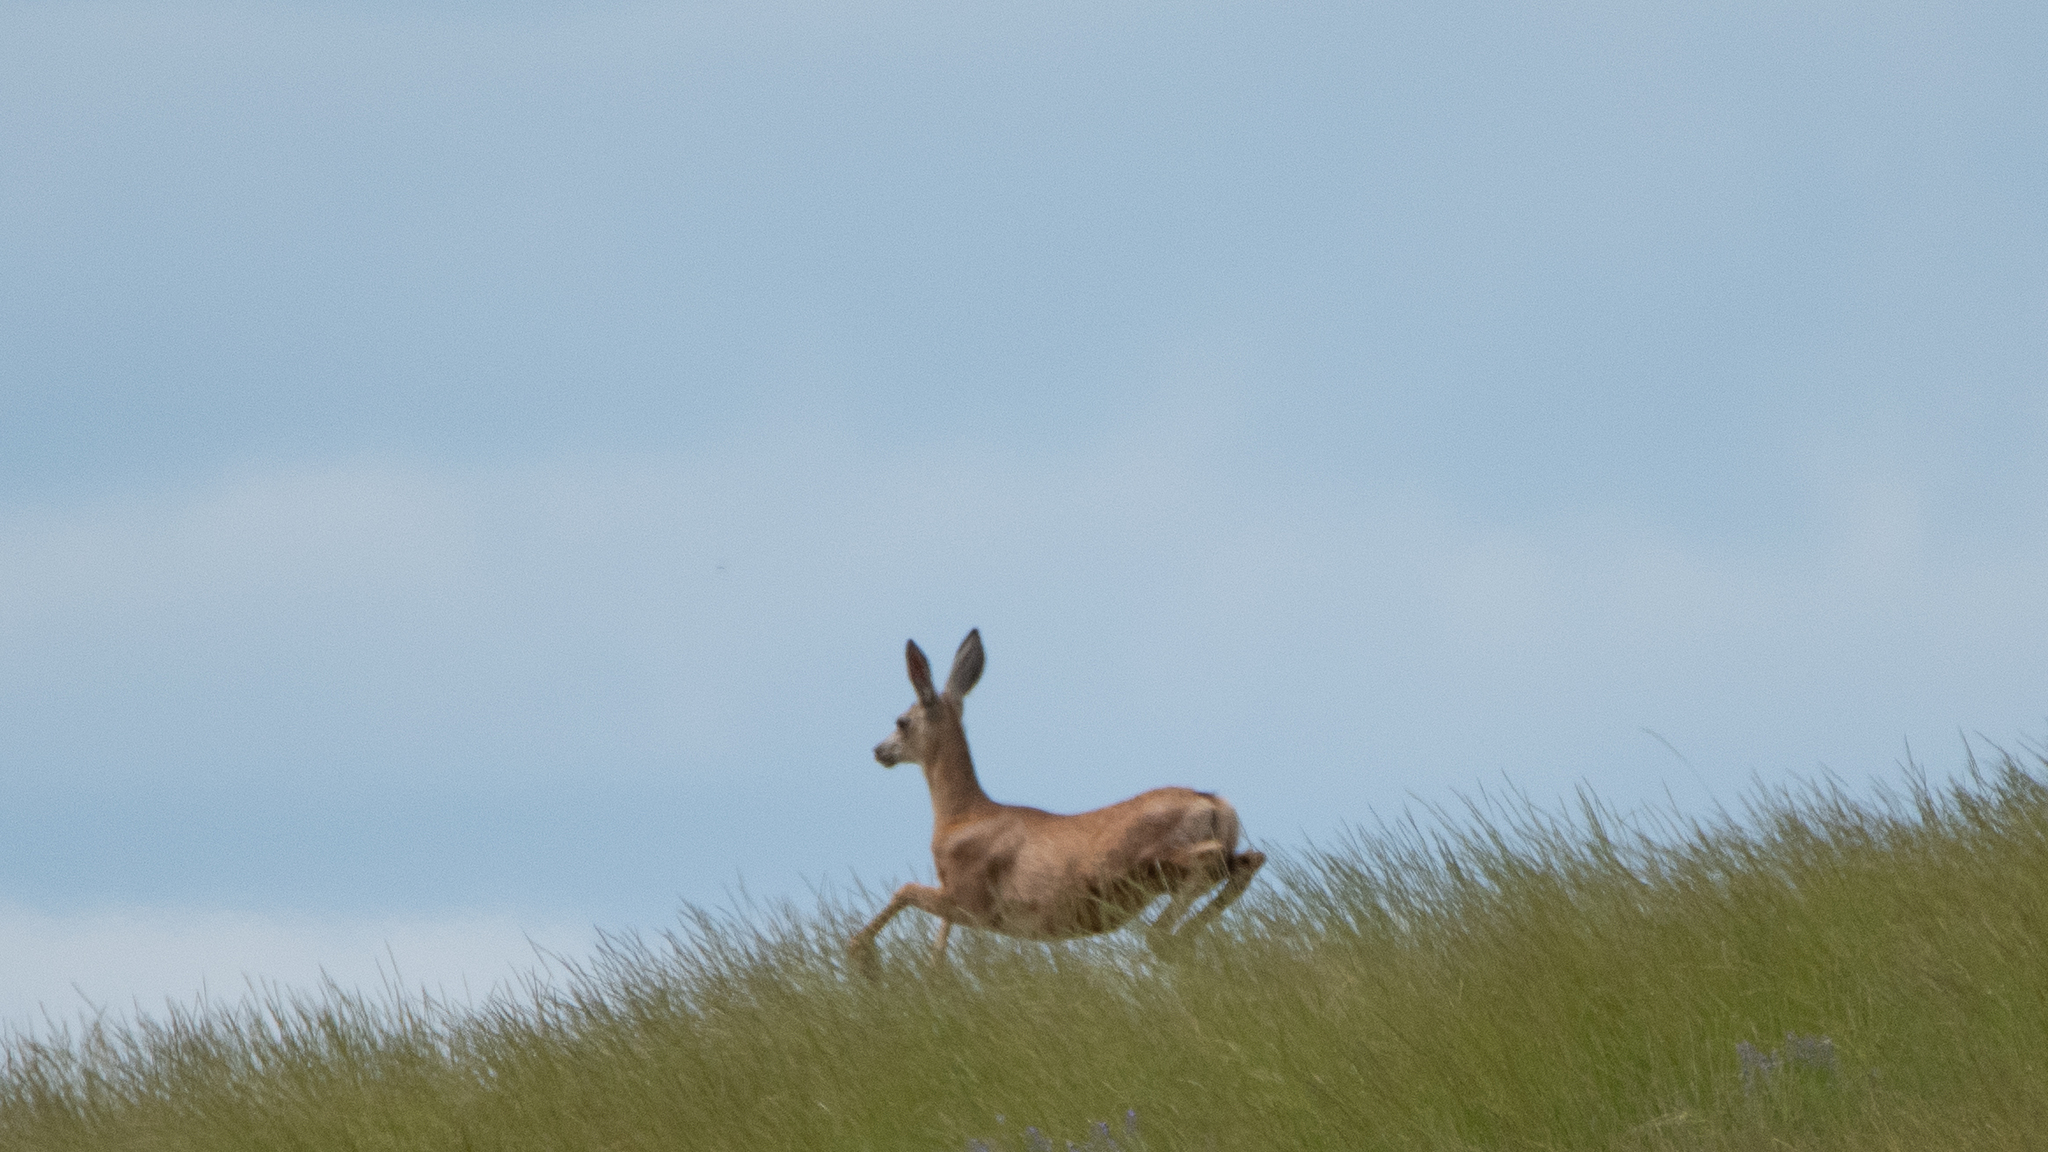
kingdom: Animalia
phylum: Chordata
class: Mammalia
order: Artiodactyla
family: Cervidae
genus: Odocoileus
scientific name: Odocoileus hemionus
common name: Mule deer
